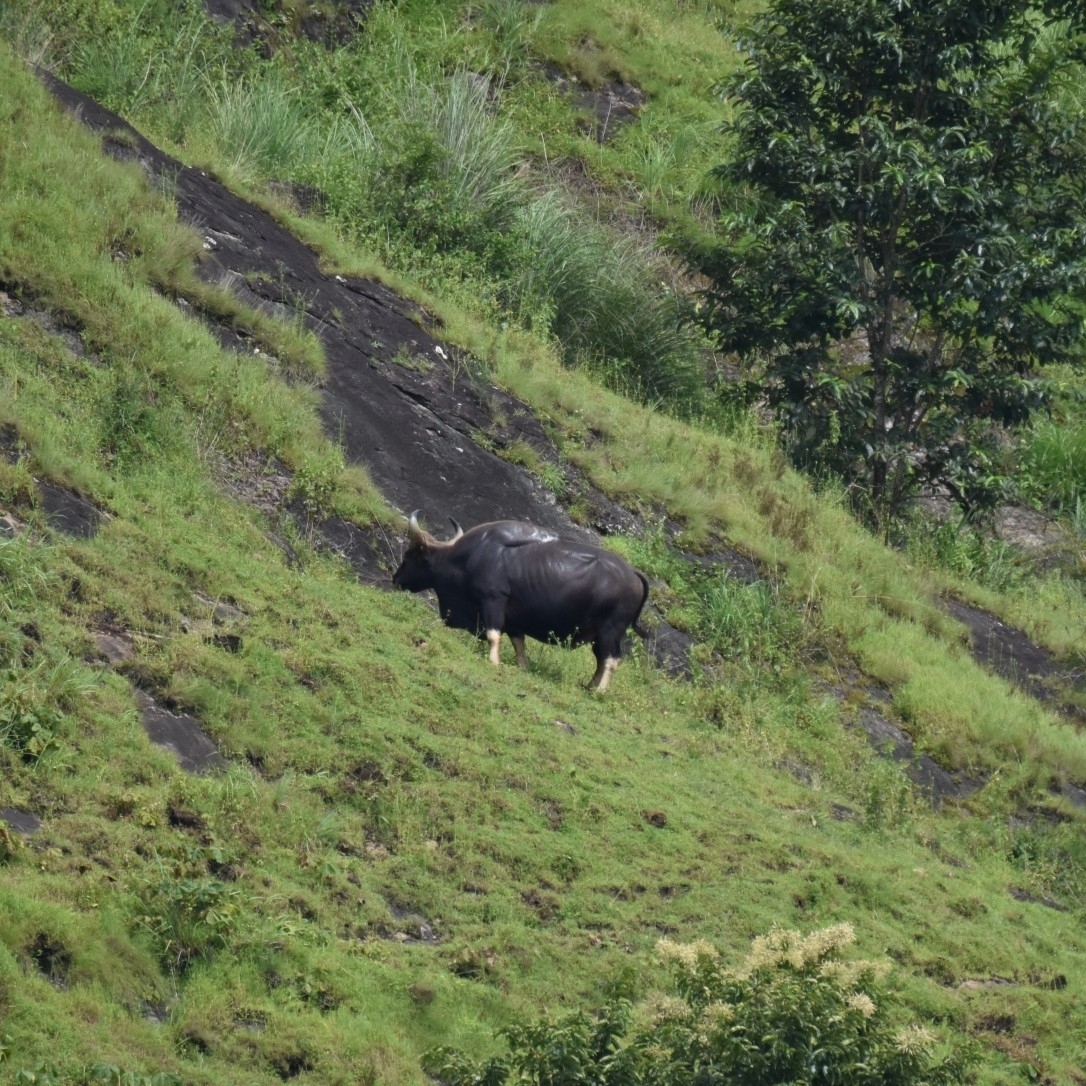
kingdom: Animalia
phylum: Chordata
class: Mammalia
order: Artiodactyla
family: Bovidae
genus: Bos
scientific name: Bos frontalis
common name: Gaur
